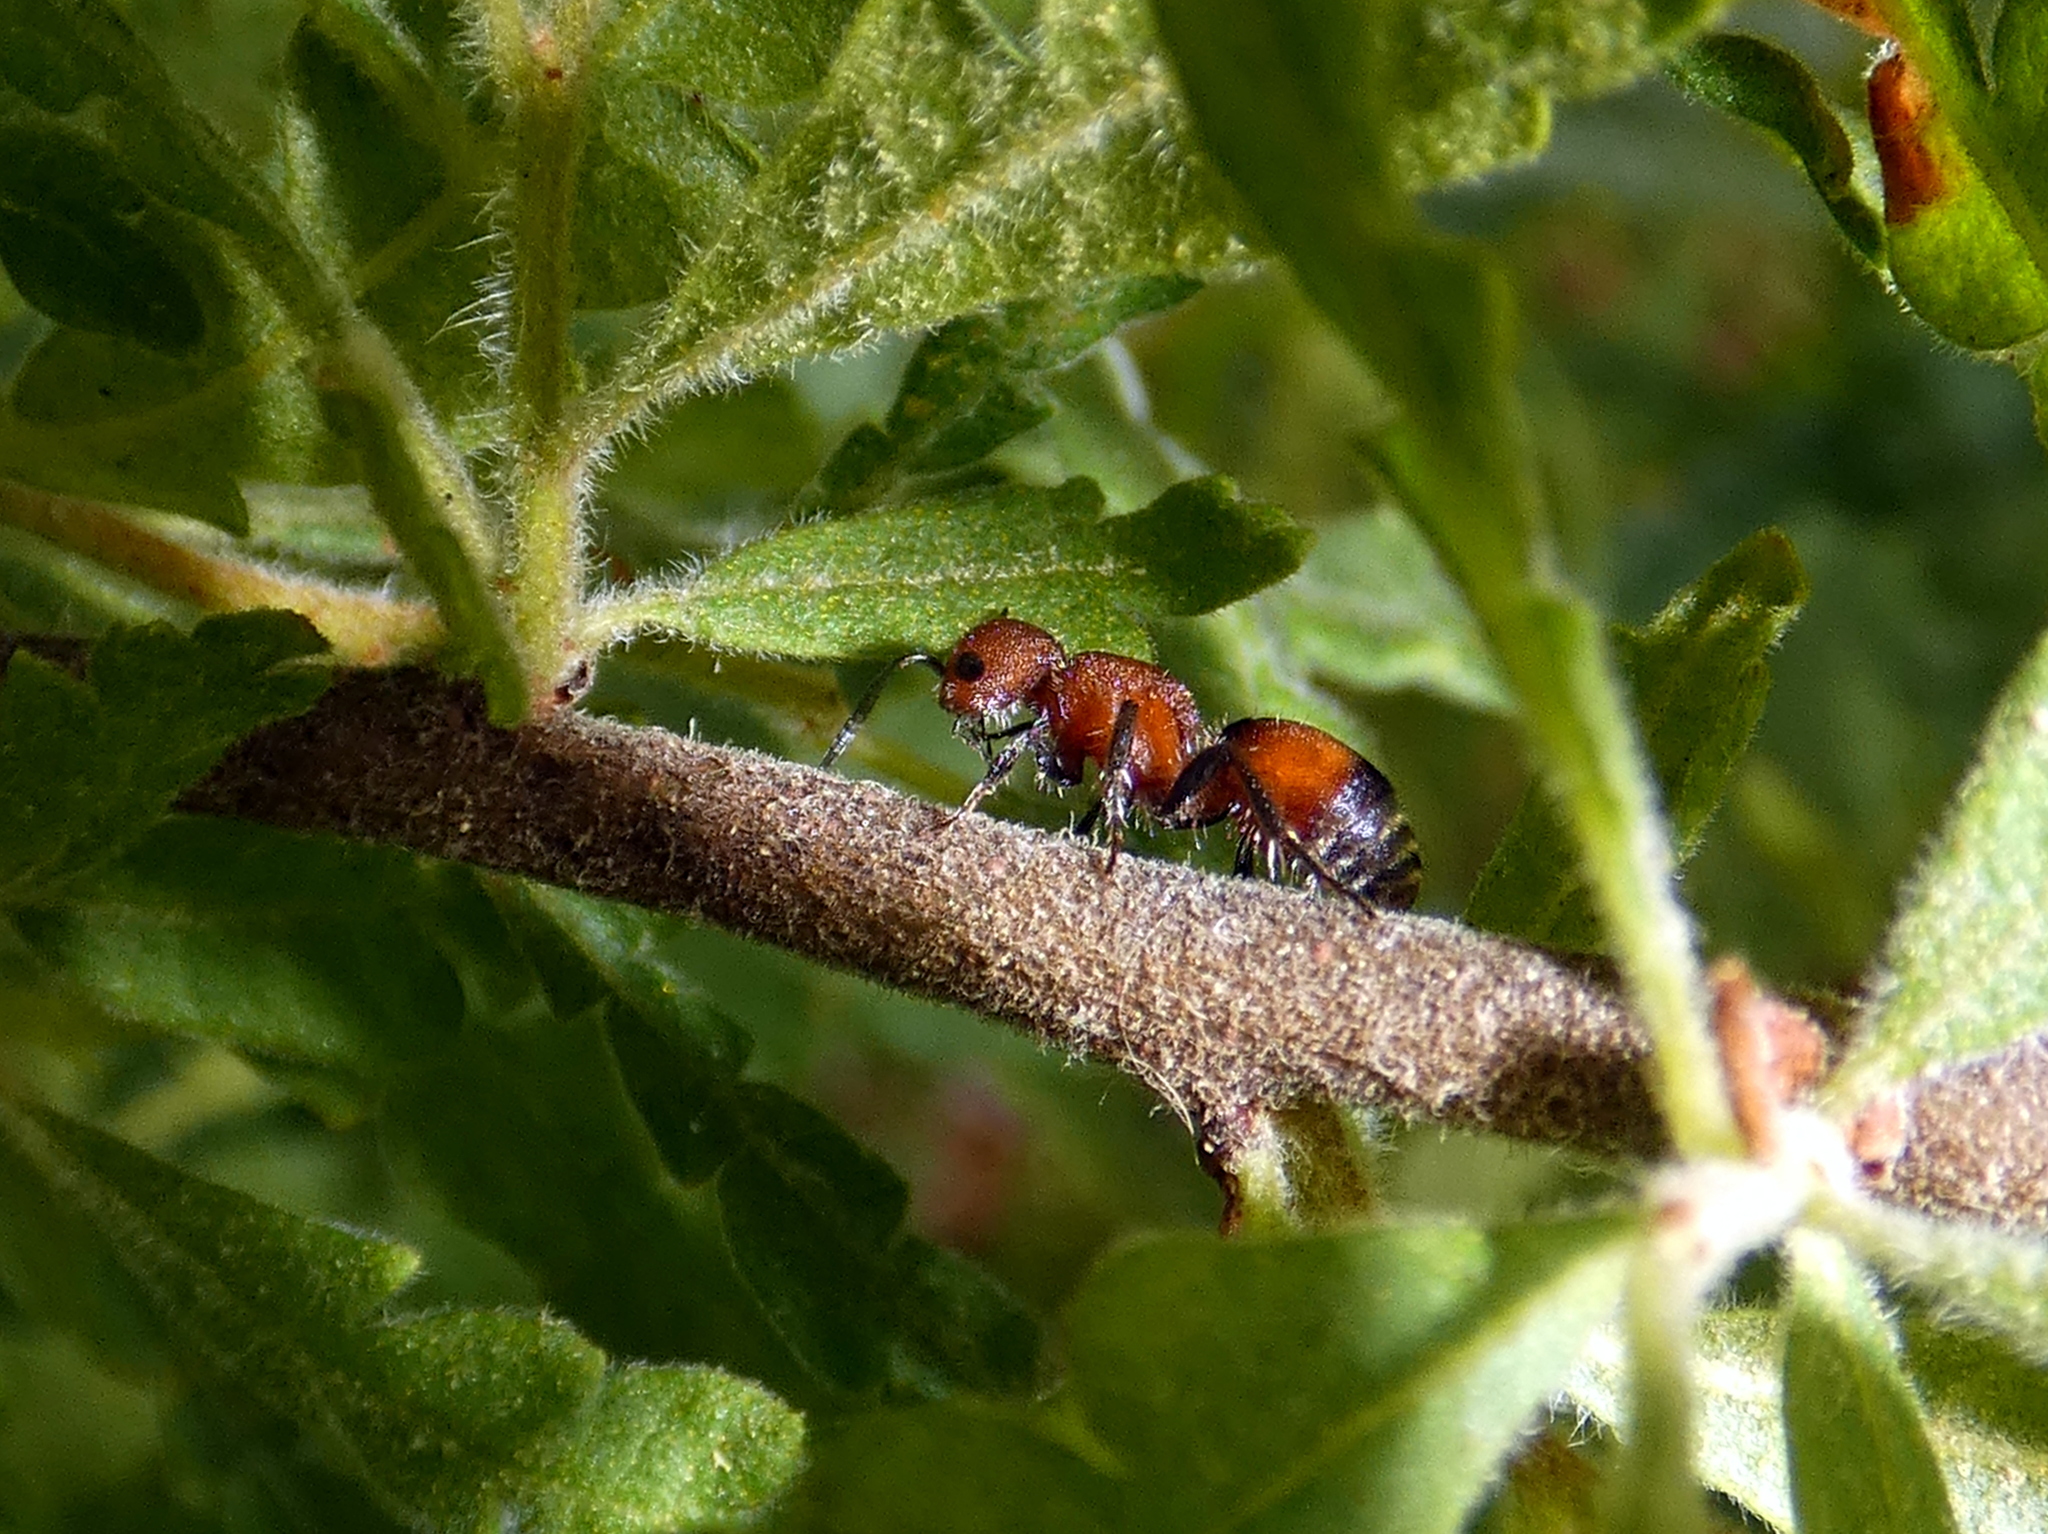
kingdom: Animalia
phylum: Arthropoda
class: Insecta
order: Hymenoptera
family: Mutillidae
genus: Pseudomethoca
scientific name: Pseudomethoca
